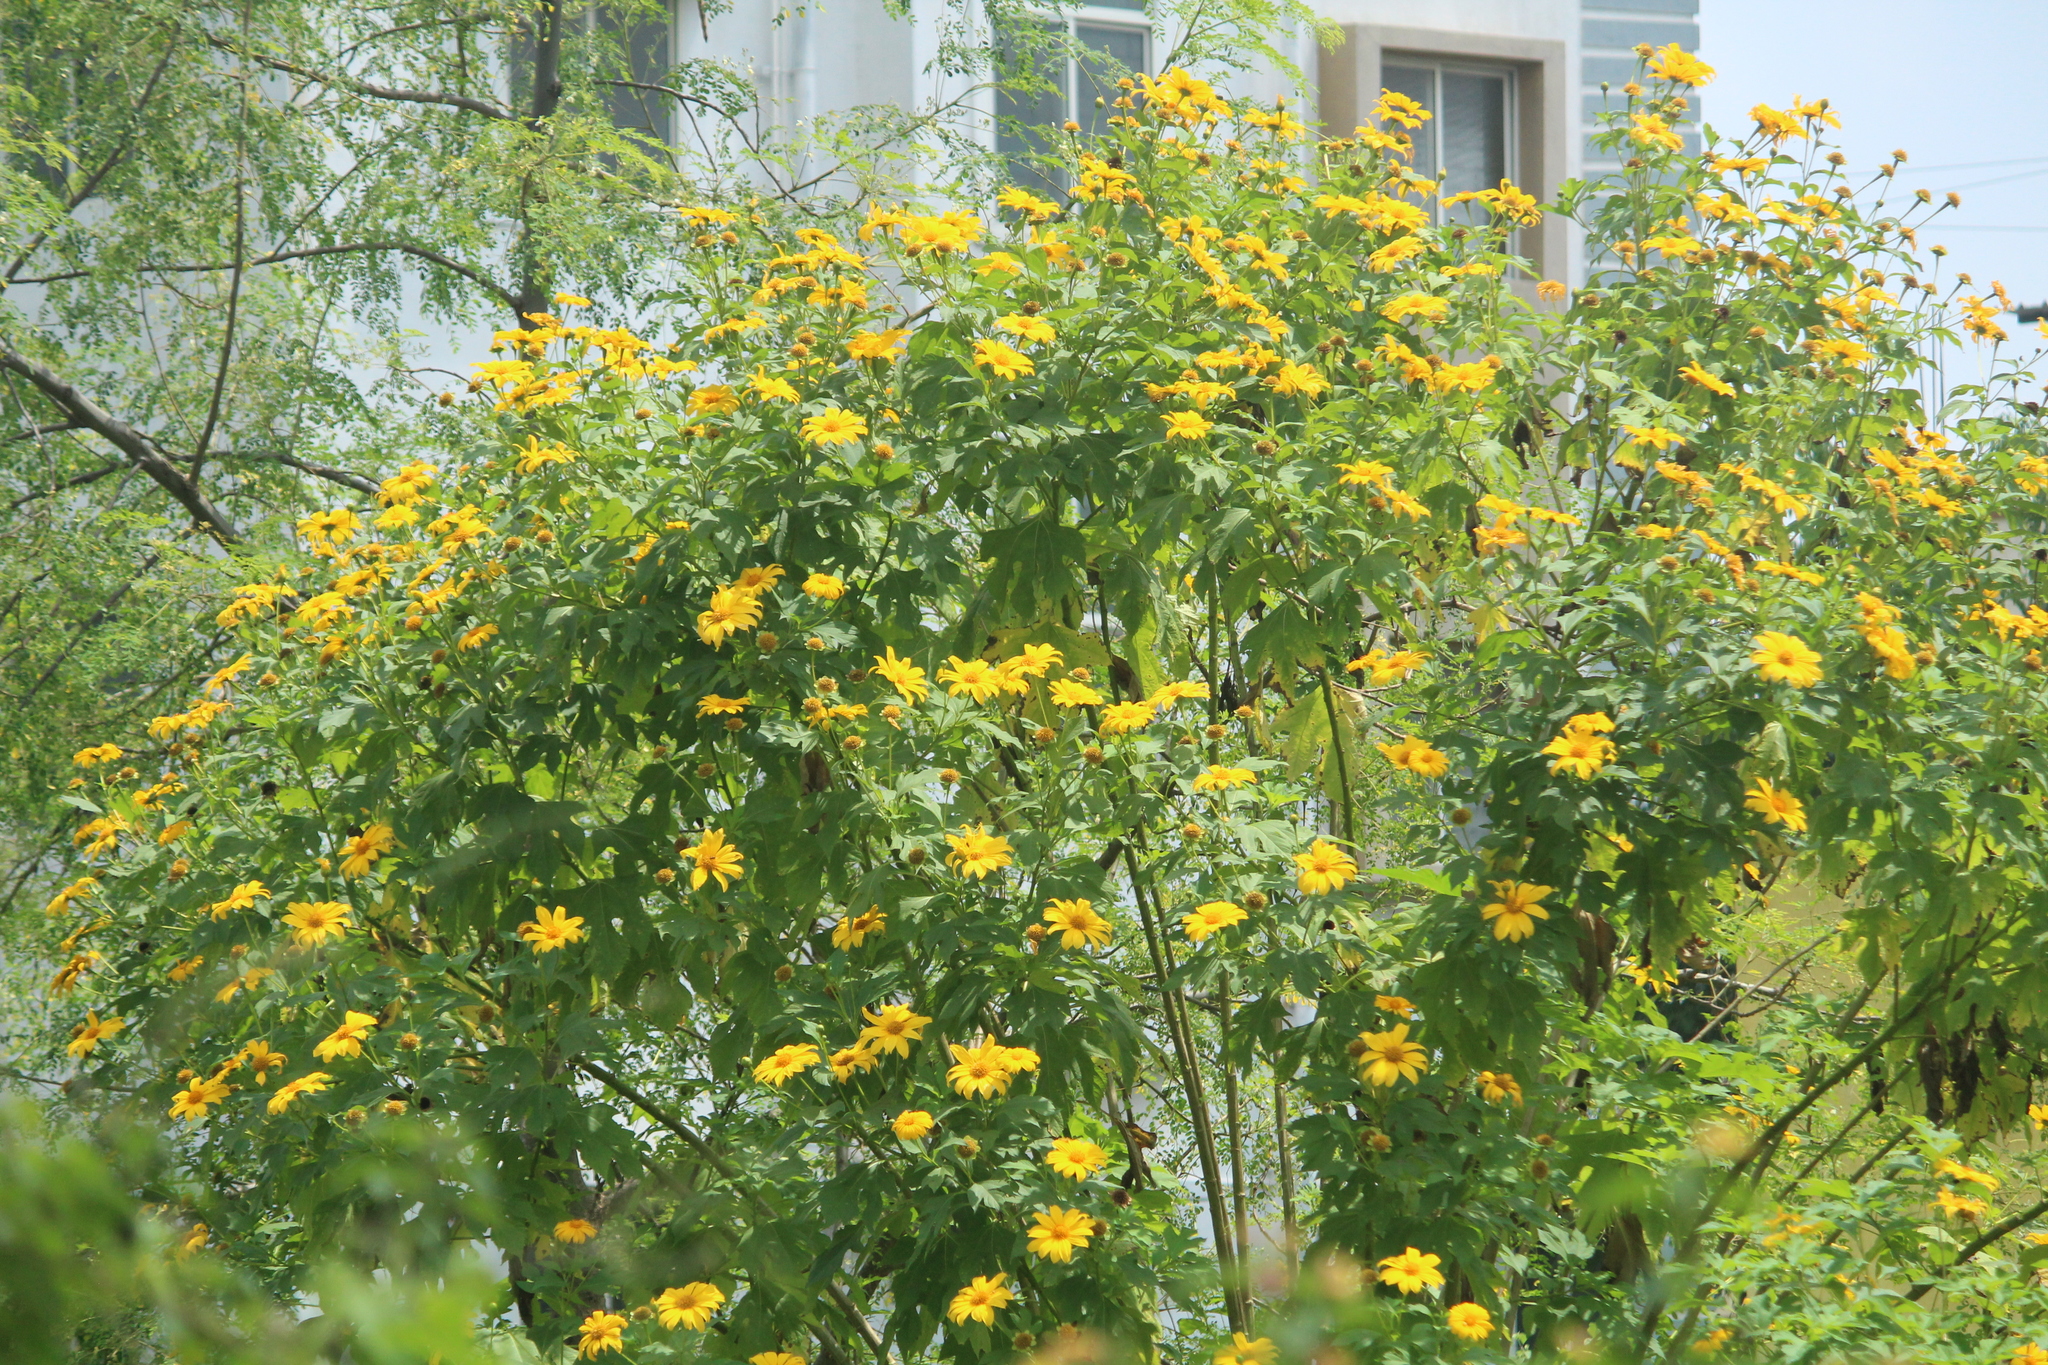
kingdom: Plantae
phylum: Tracheophyta
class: Magnoliopsida
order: Asterales
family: Asteraceae
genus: Tithonia
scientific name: Tithonia diversifolia
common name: Tree marigold
